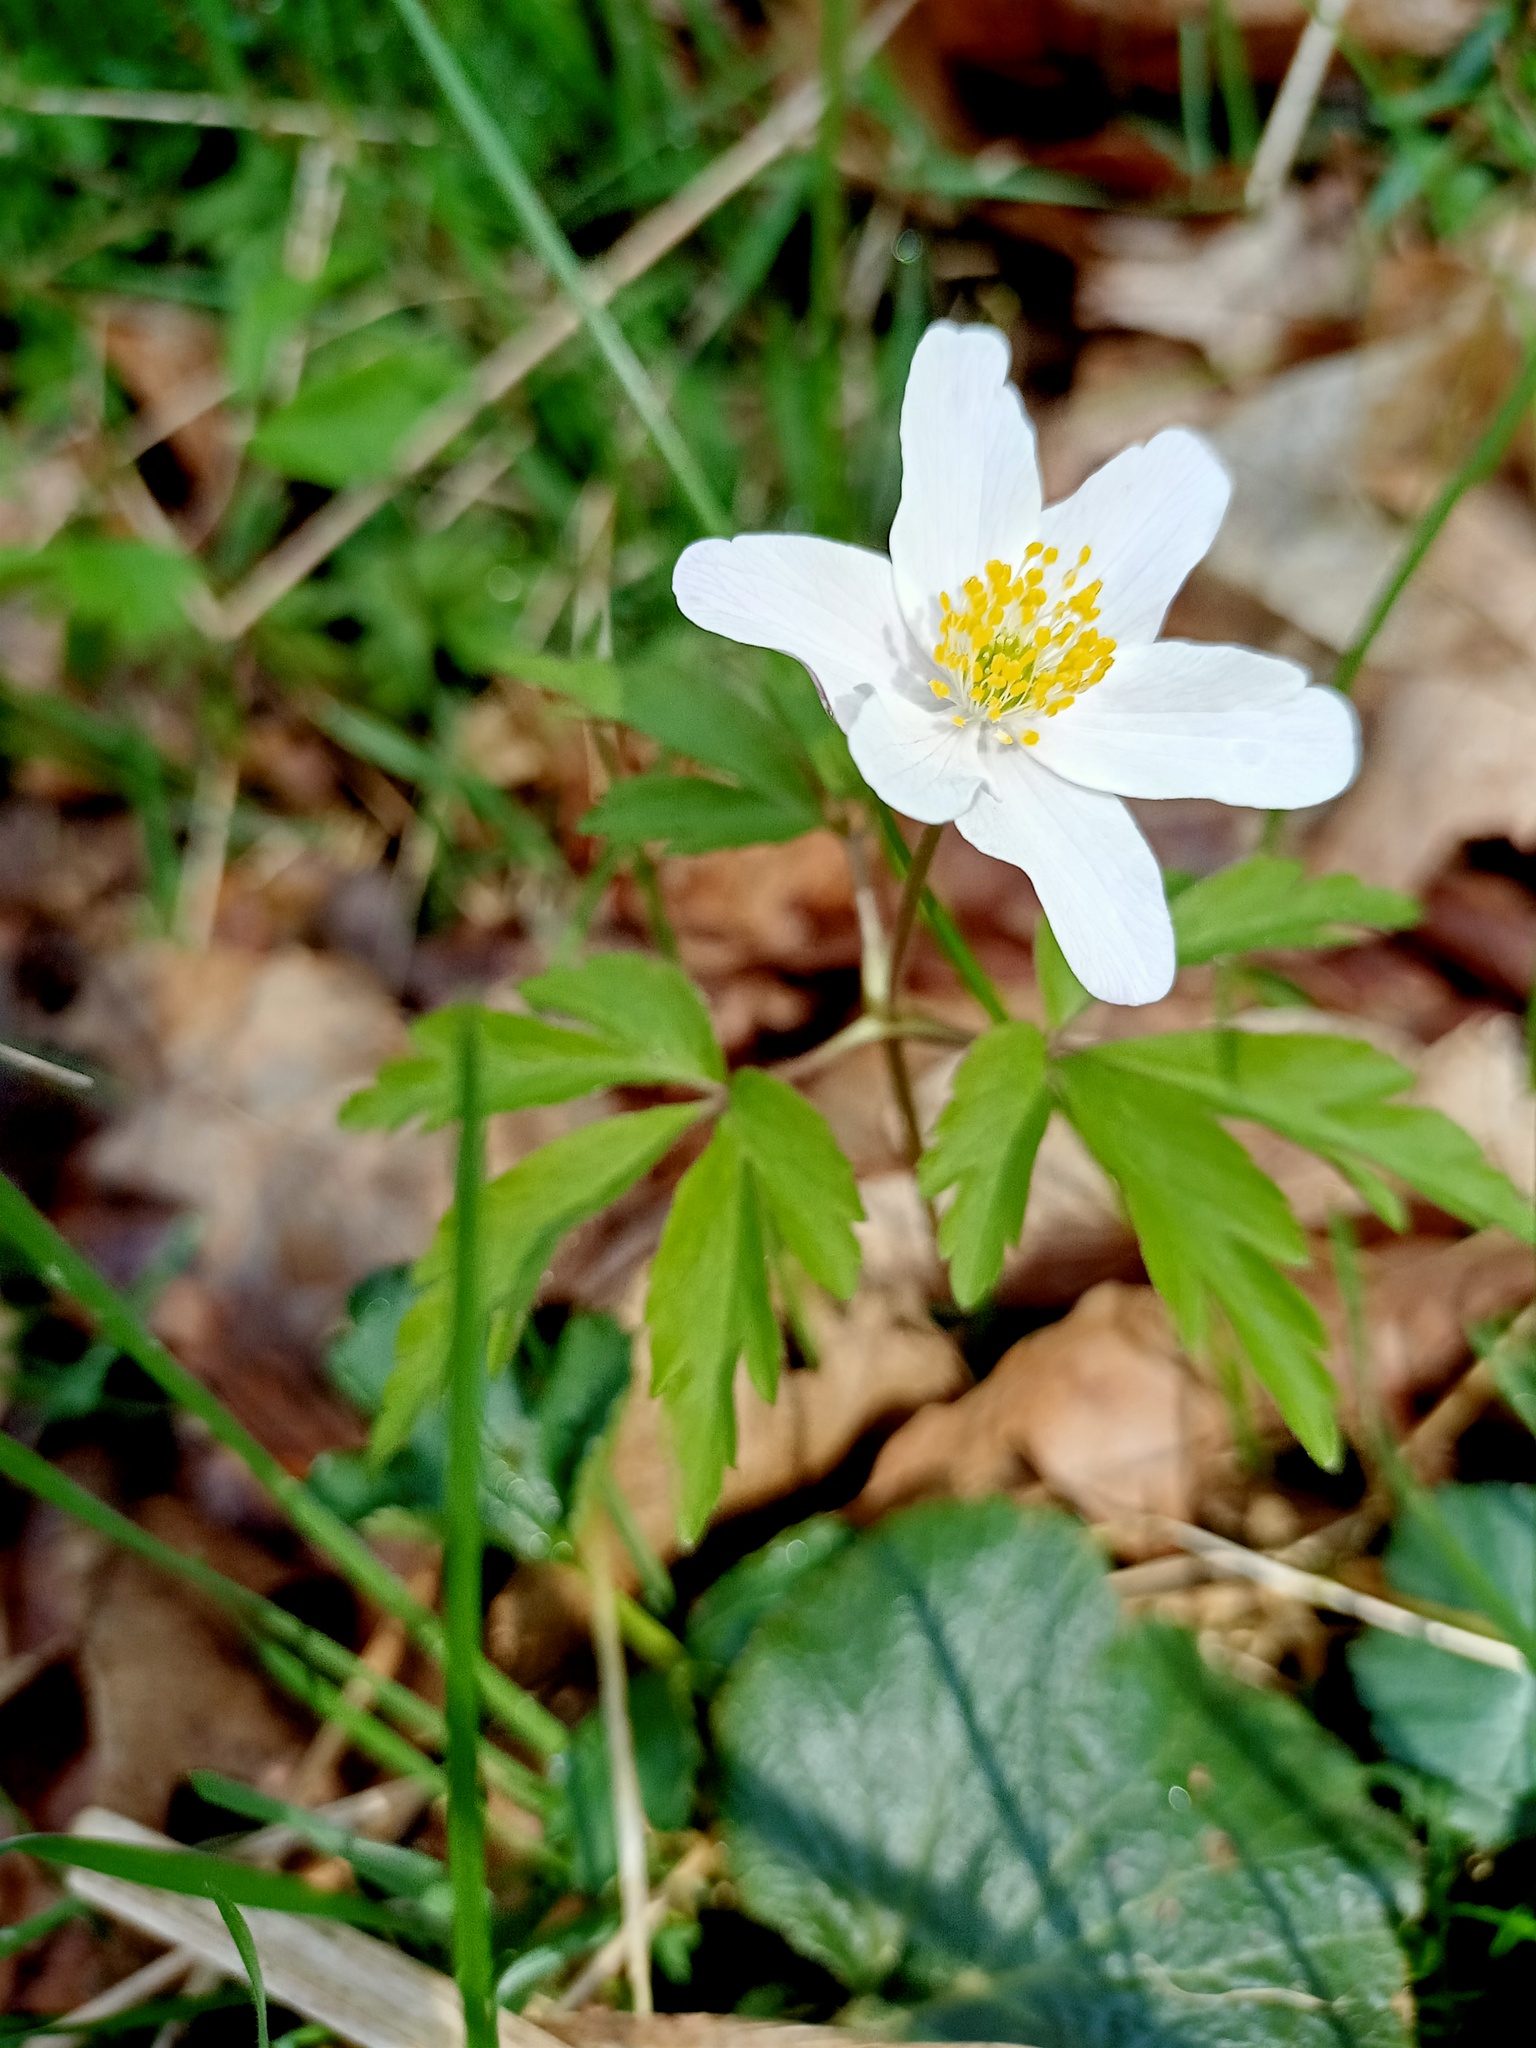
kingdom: Plantae
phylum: Tracheophyta
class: Magnoliopsida
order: Ranunculales
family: Ranunculaceae
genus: Anemone
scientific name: Anemone nemorosa
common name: Wood anemone
